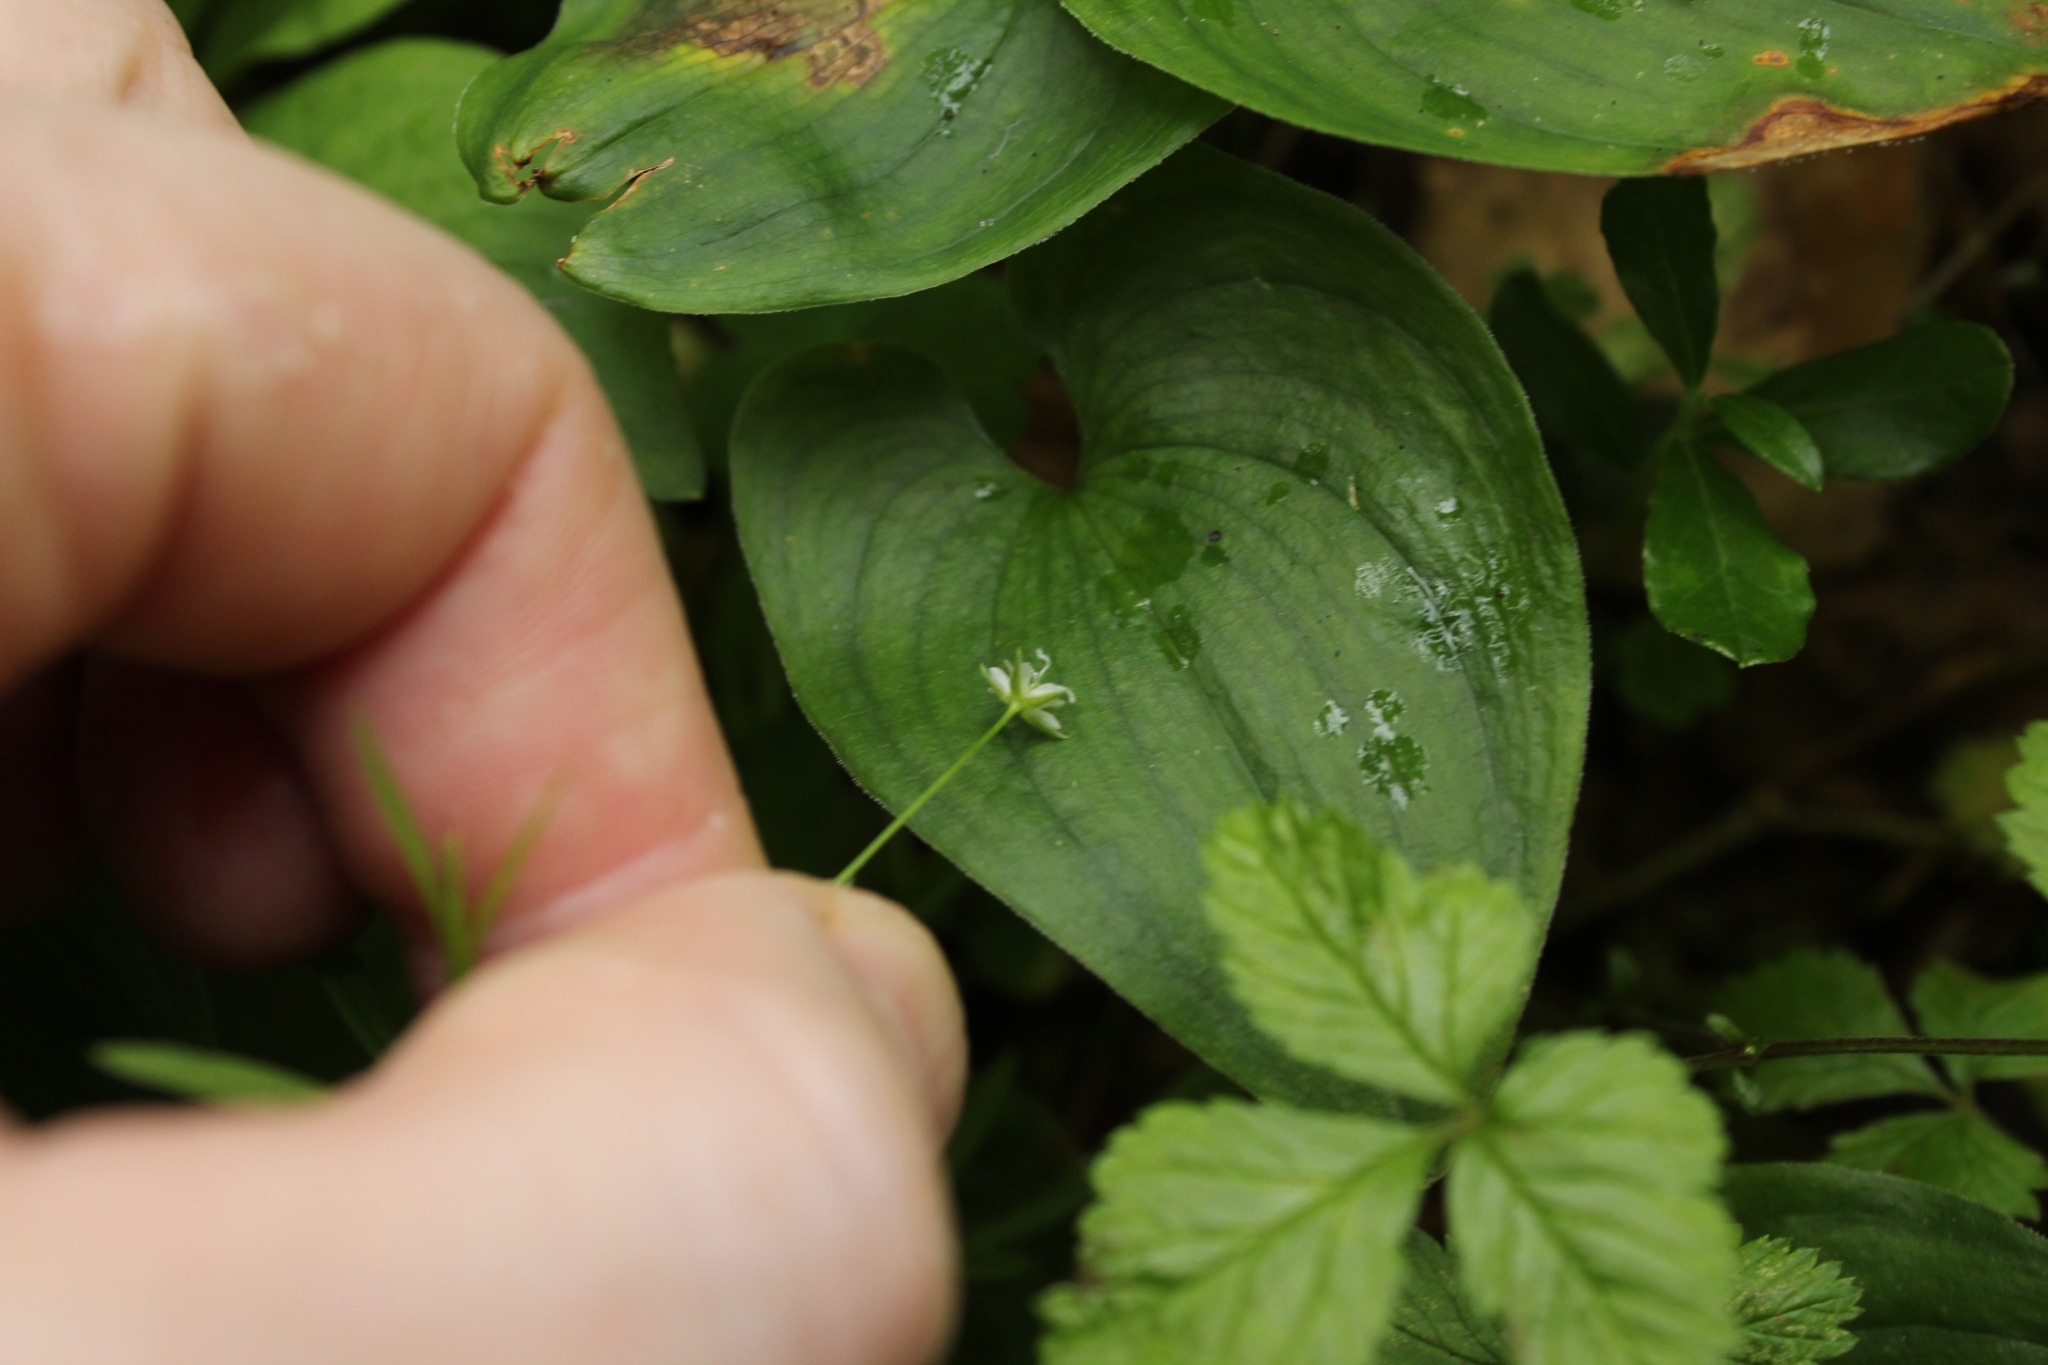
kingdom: Plantae
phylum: Tracheophyta
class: Magnoliopsida
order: Caryophyllales
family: Caryophyllaceae
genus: Stellaria
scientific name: Stellaria longifolia
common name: Long-leaved chickweed
